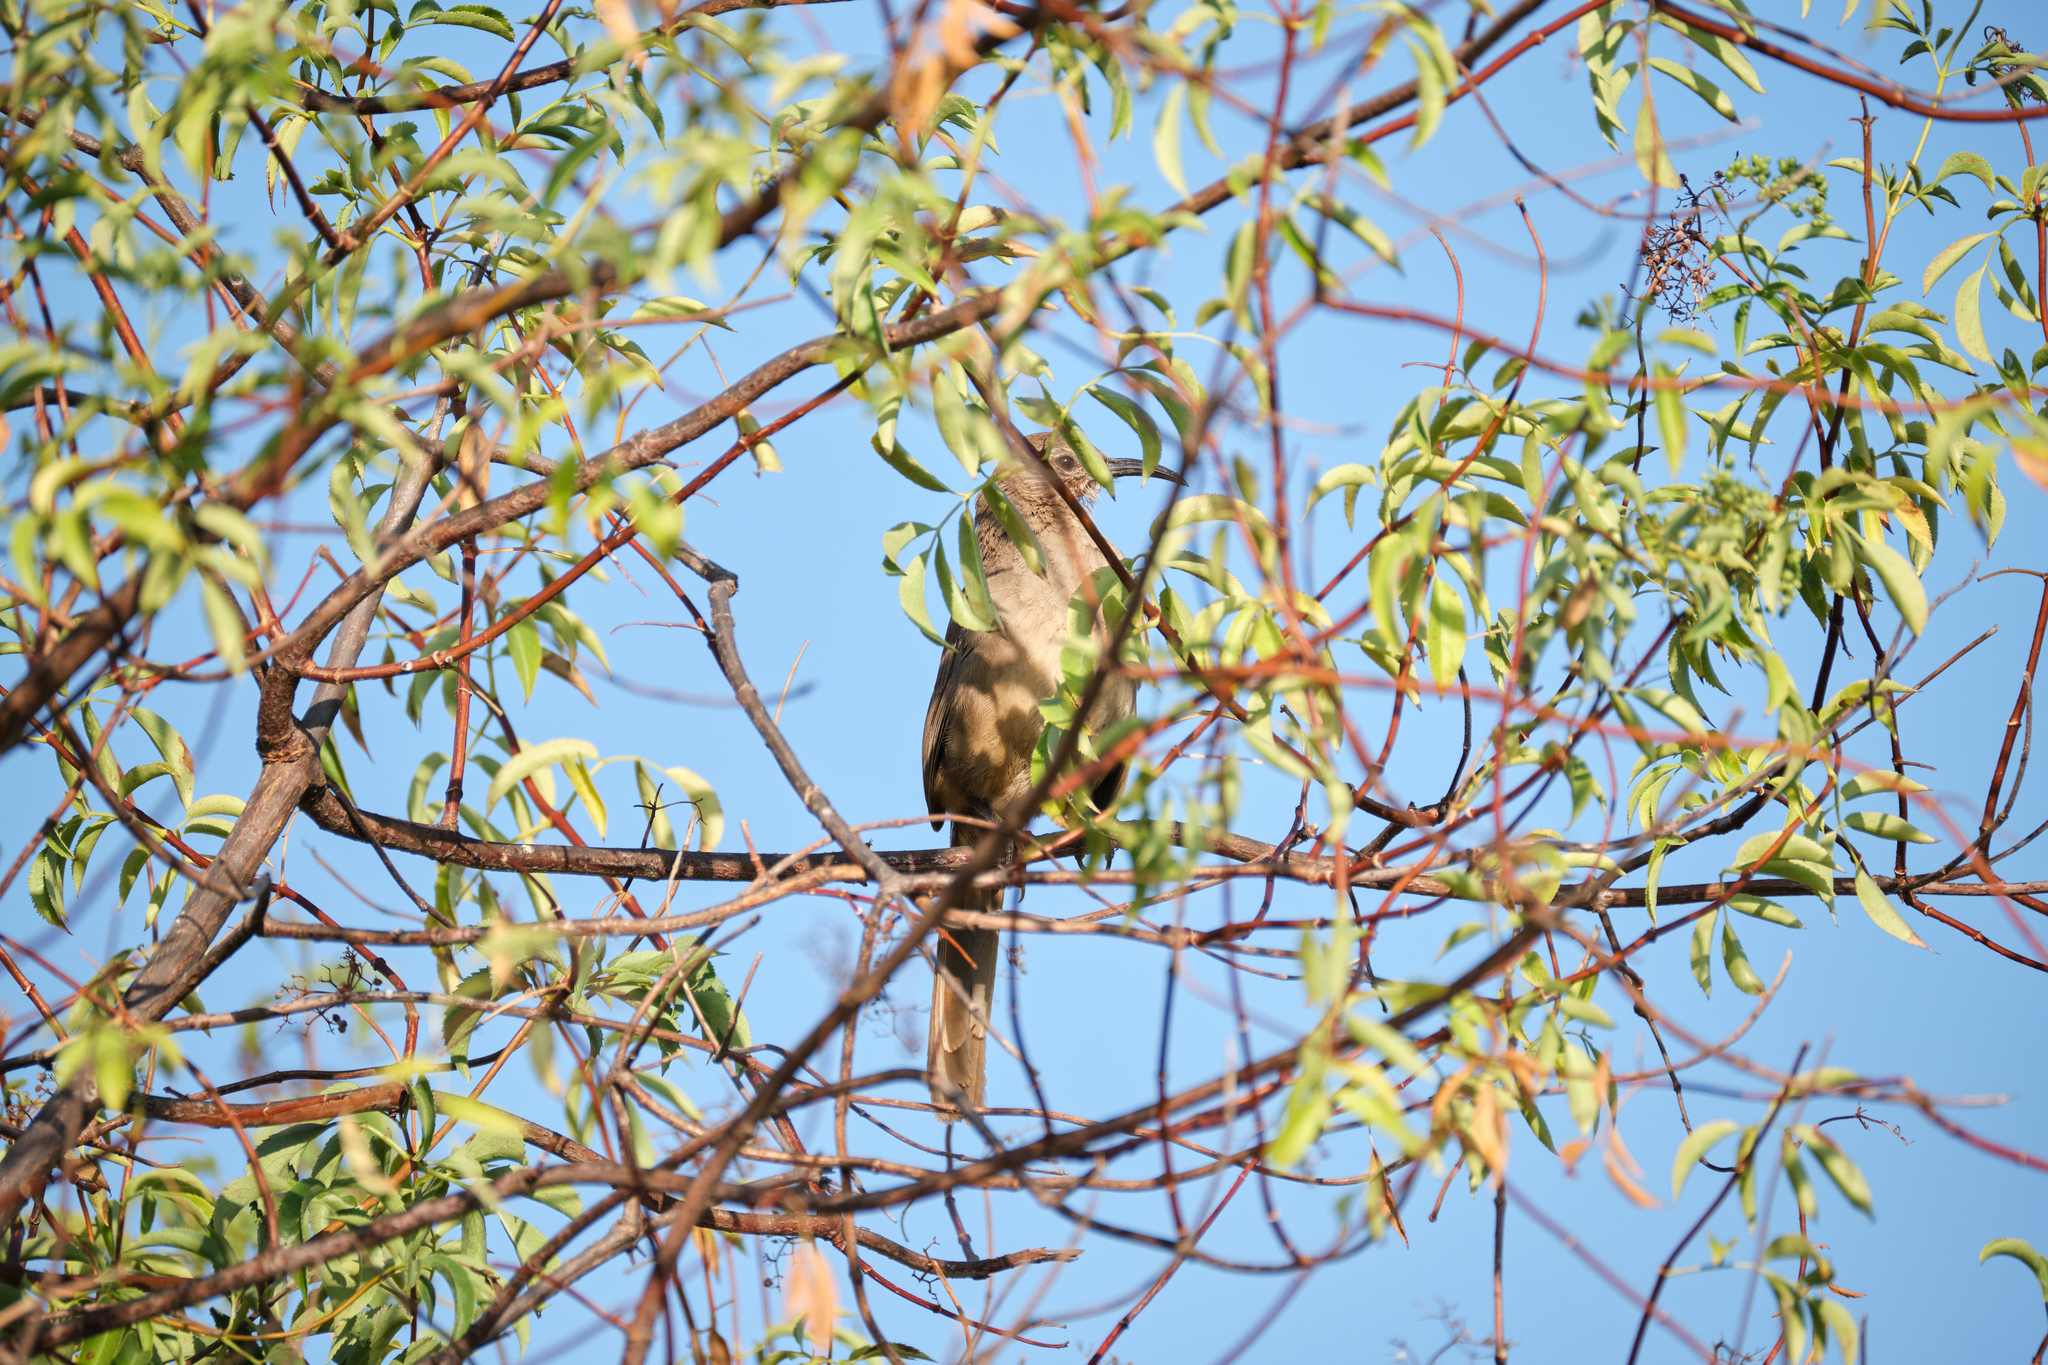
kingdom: Animalia
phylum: Chordata
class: Aves
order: Passeriformes
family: Mimidae
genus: Toxostoma
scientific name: Toxostoma redivivum
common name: California thrasher
